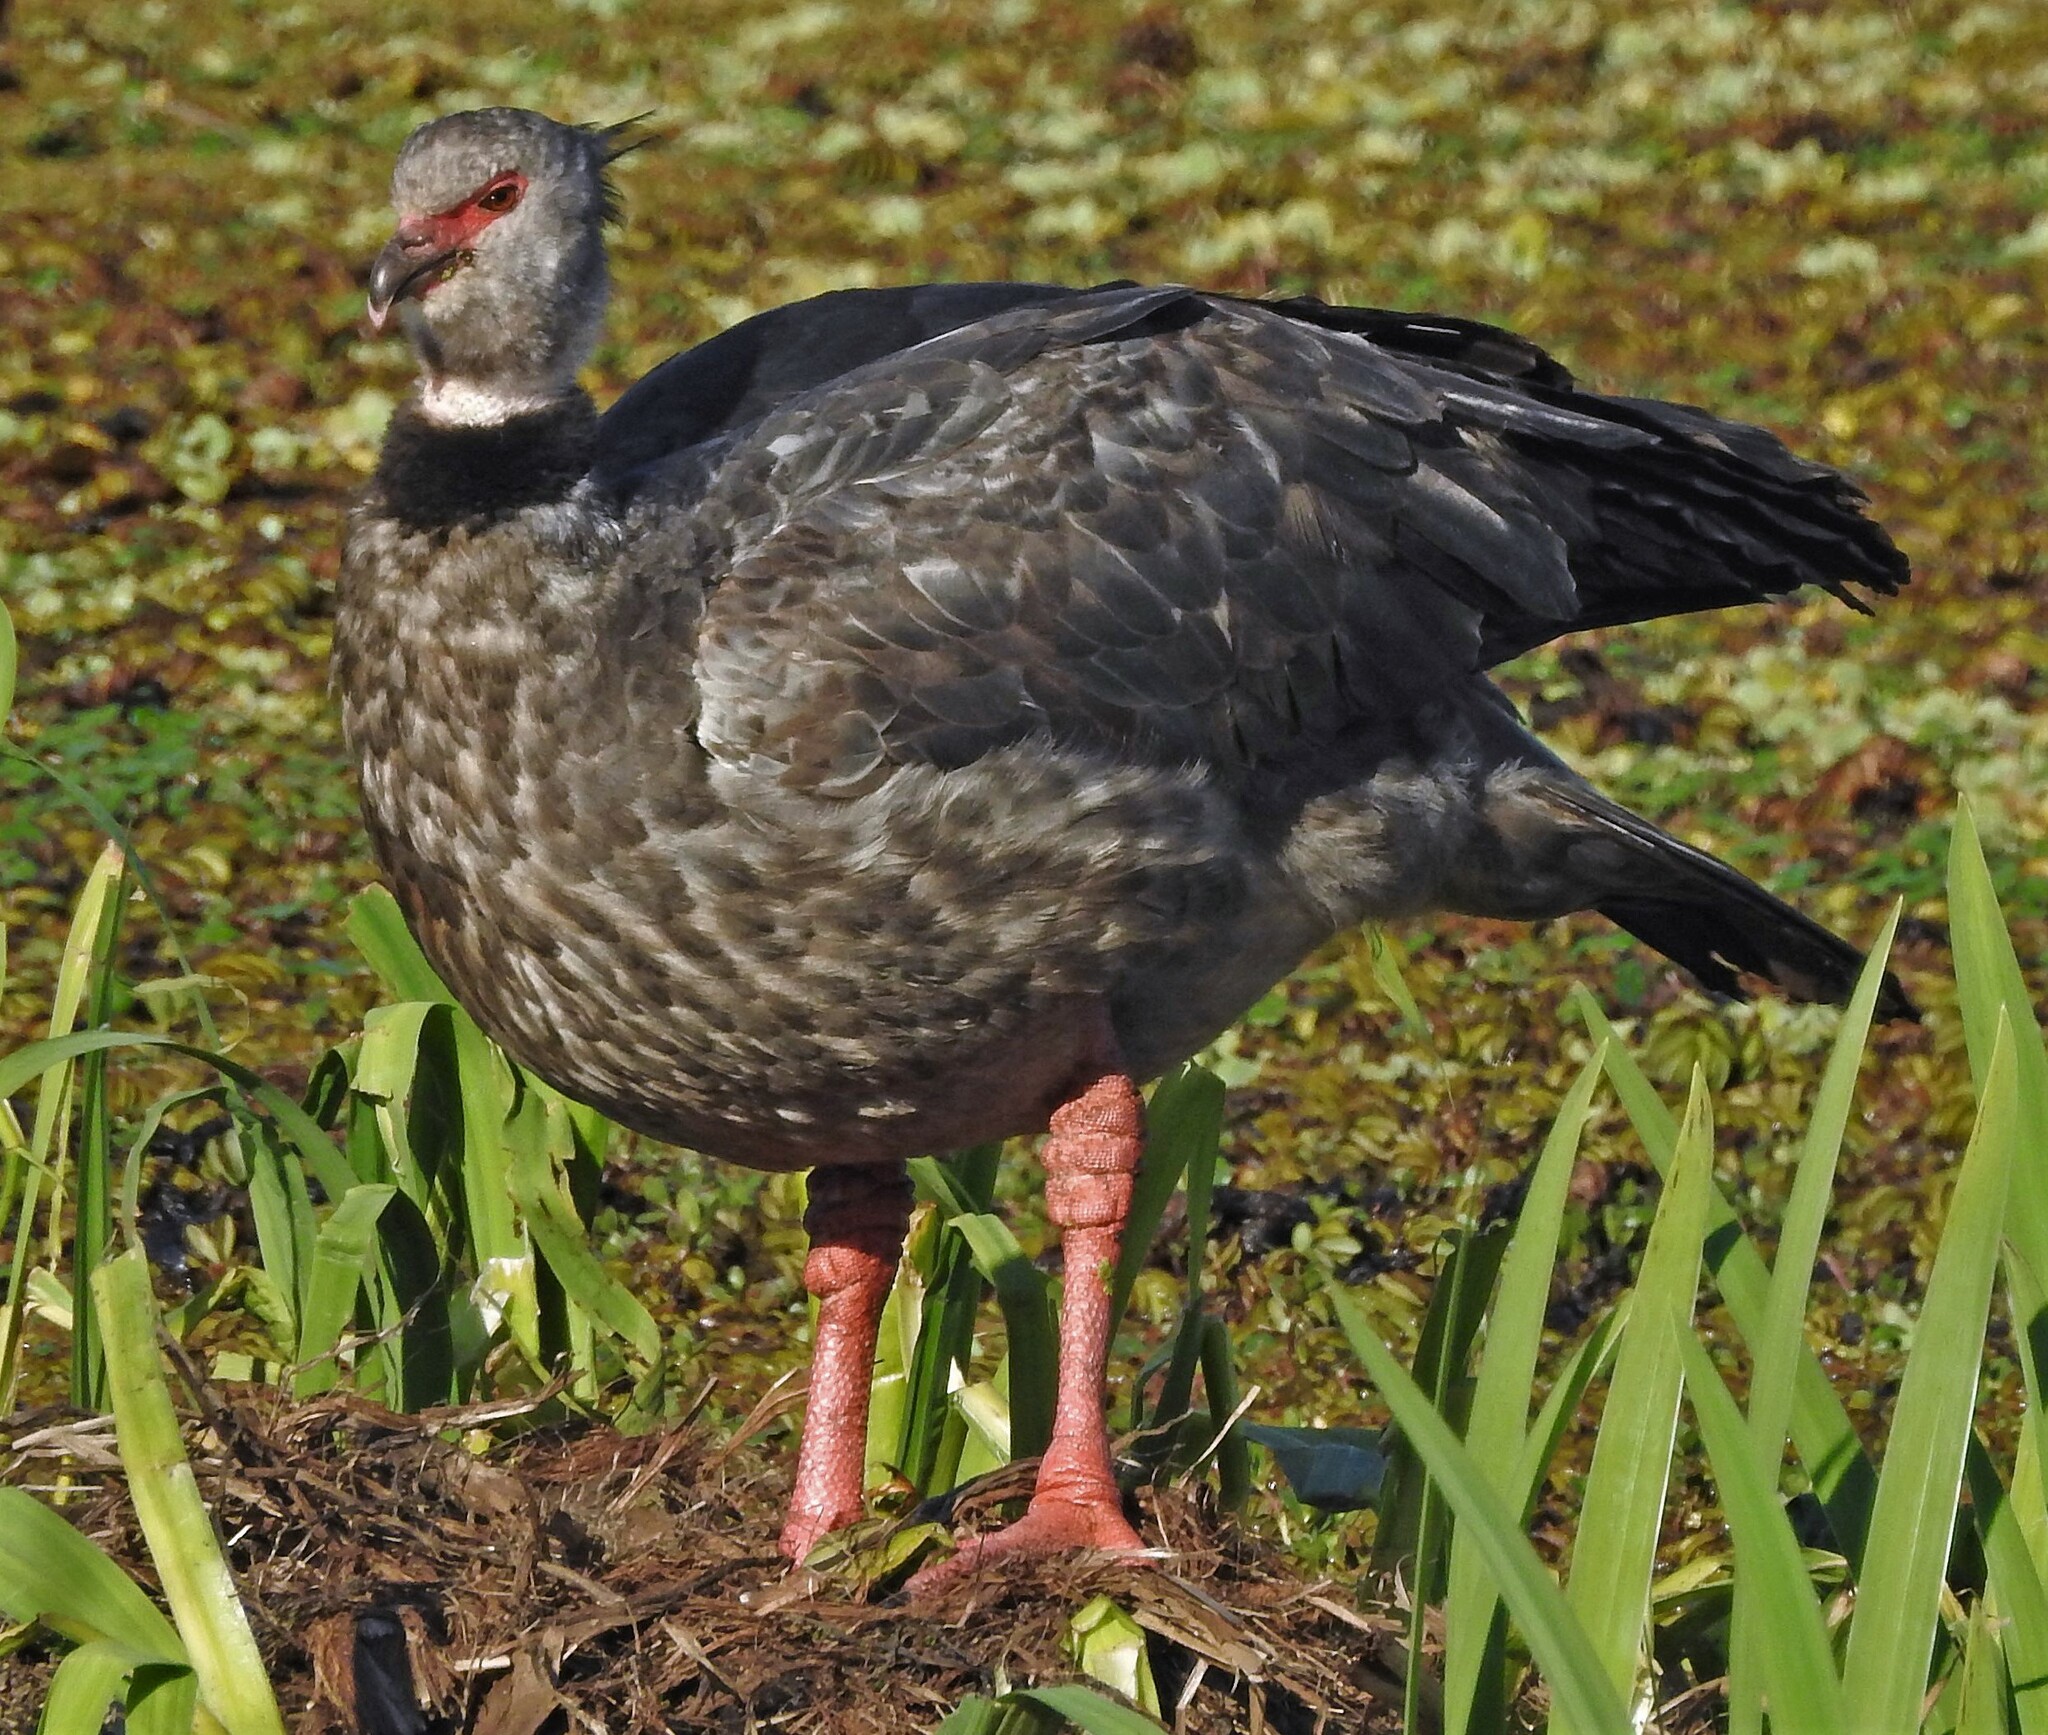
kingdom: Animalia
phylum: Chordata
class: Aves
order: Anseriformes
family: Anhimidae
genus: Chauna
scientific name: Chauna torquata
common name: Southern screamer
